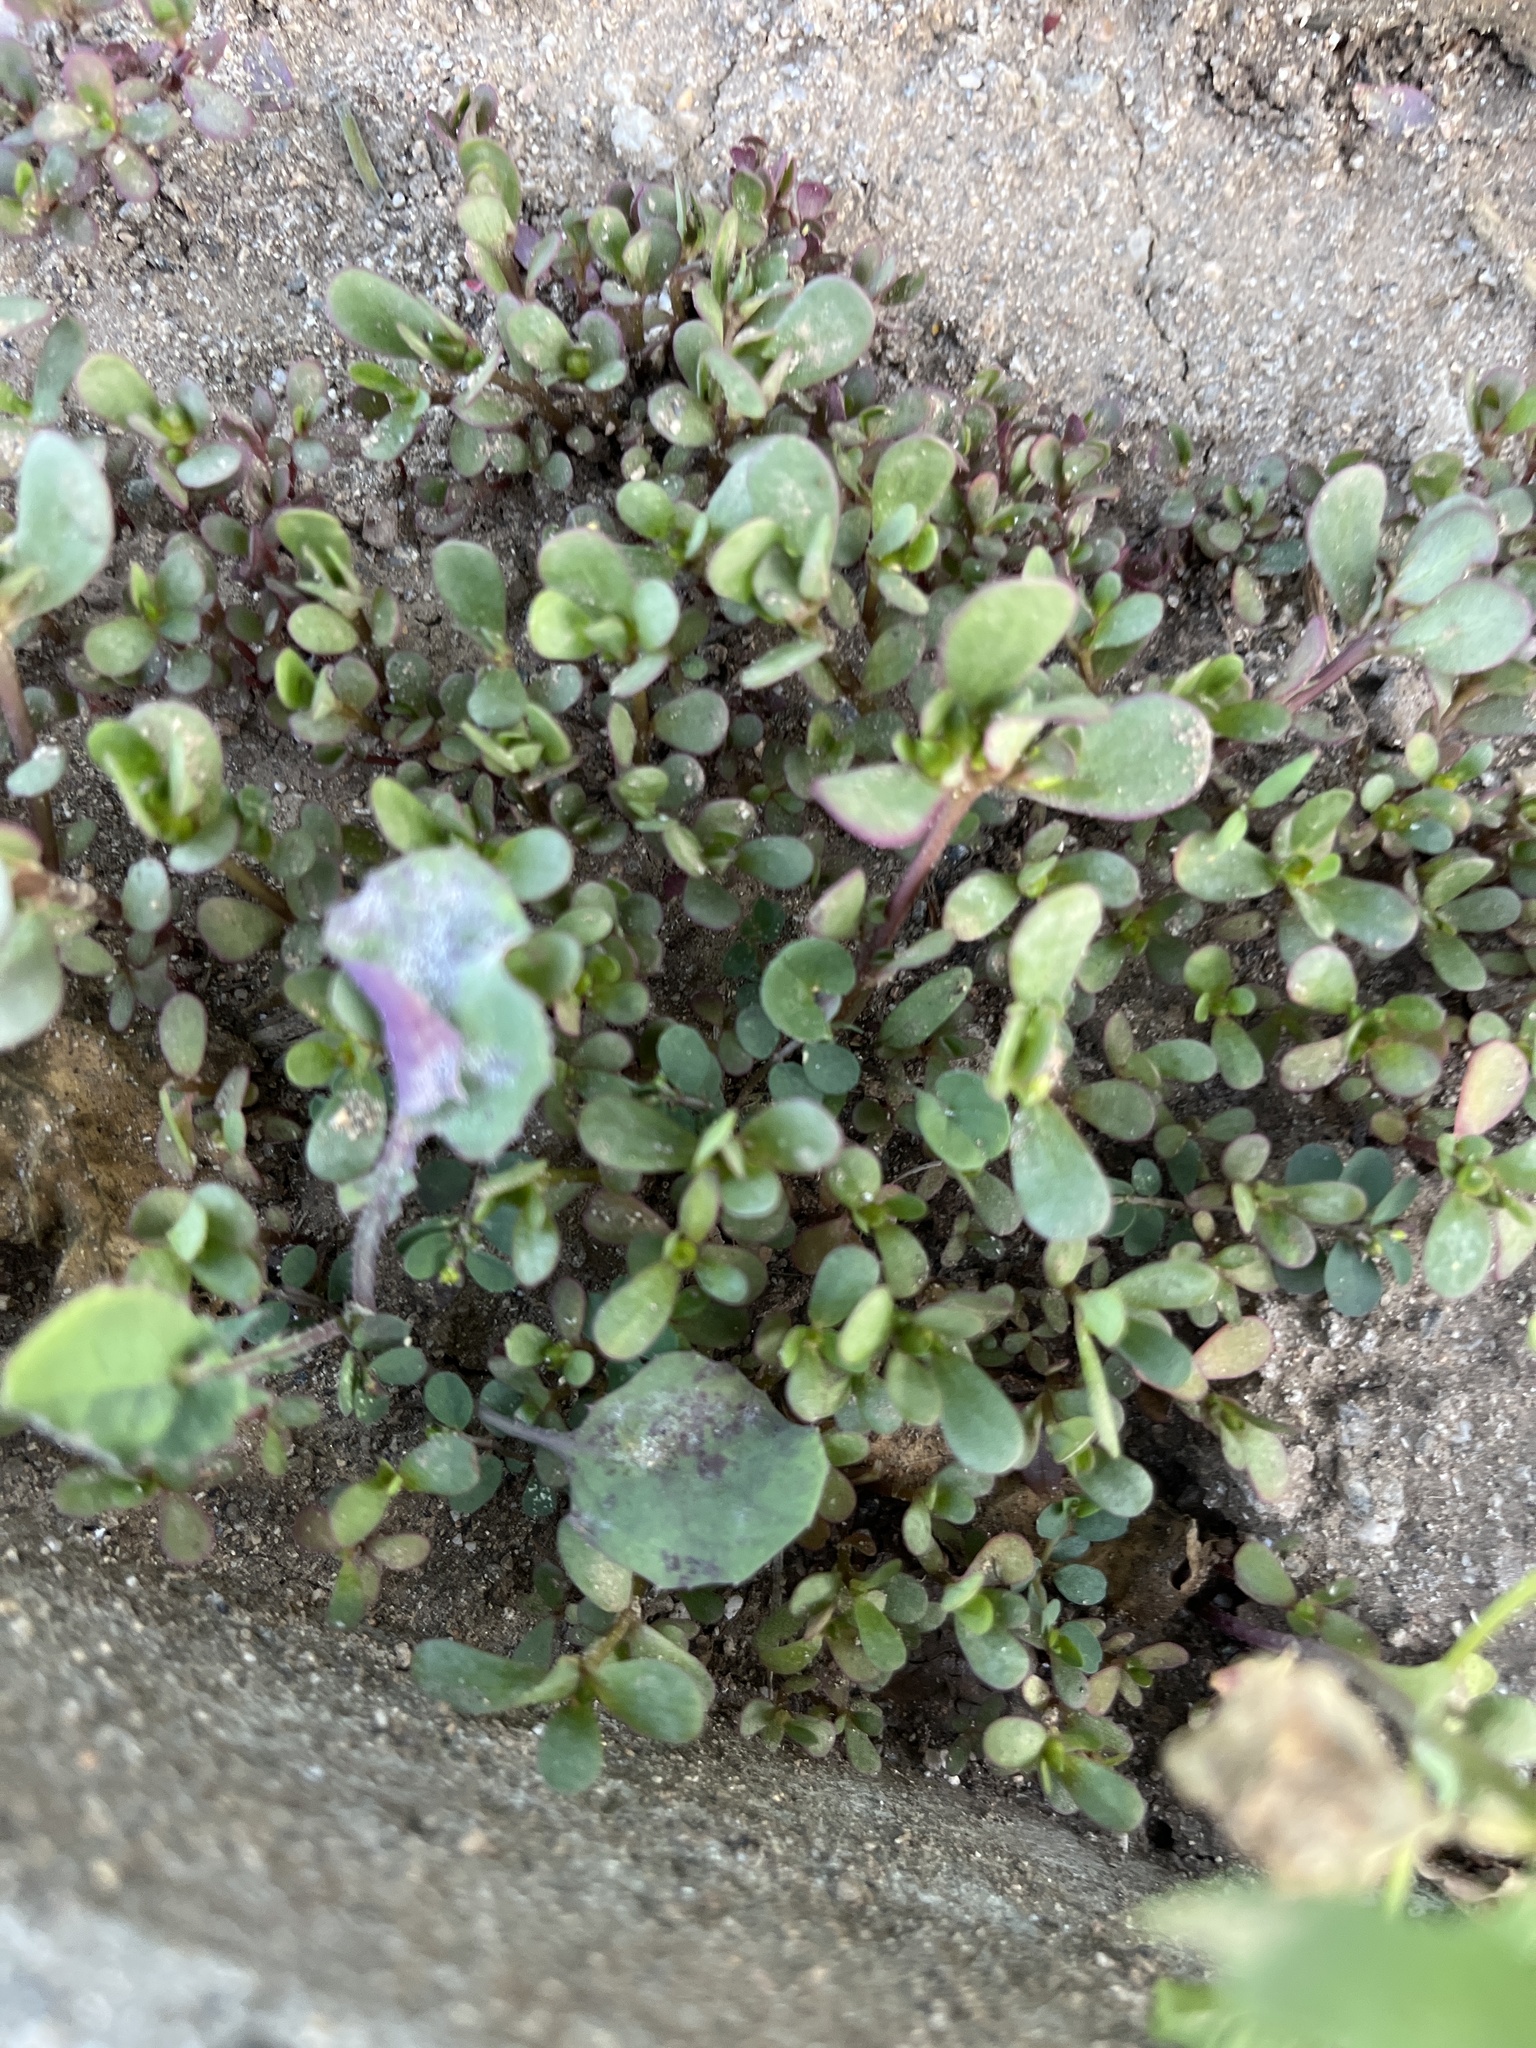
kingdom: Plantae
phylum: Tracheophyta
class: Magnoliopsida
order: Caryophyllales
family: Portulacaceae
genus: Portulaca
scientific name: Portulaca oleracea
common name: Common purslane
